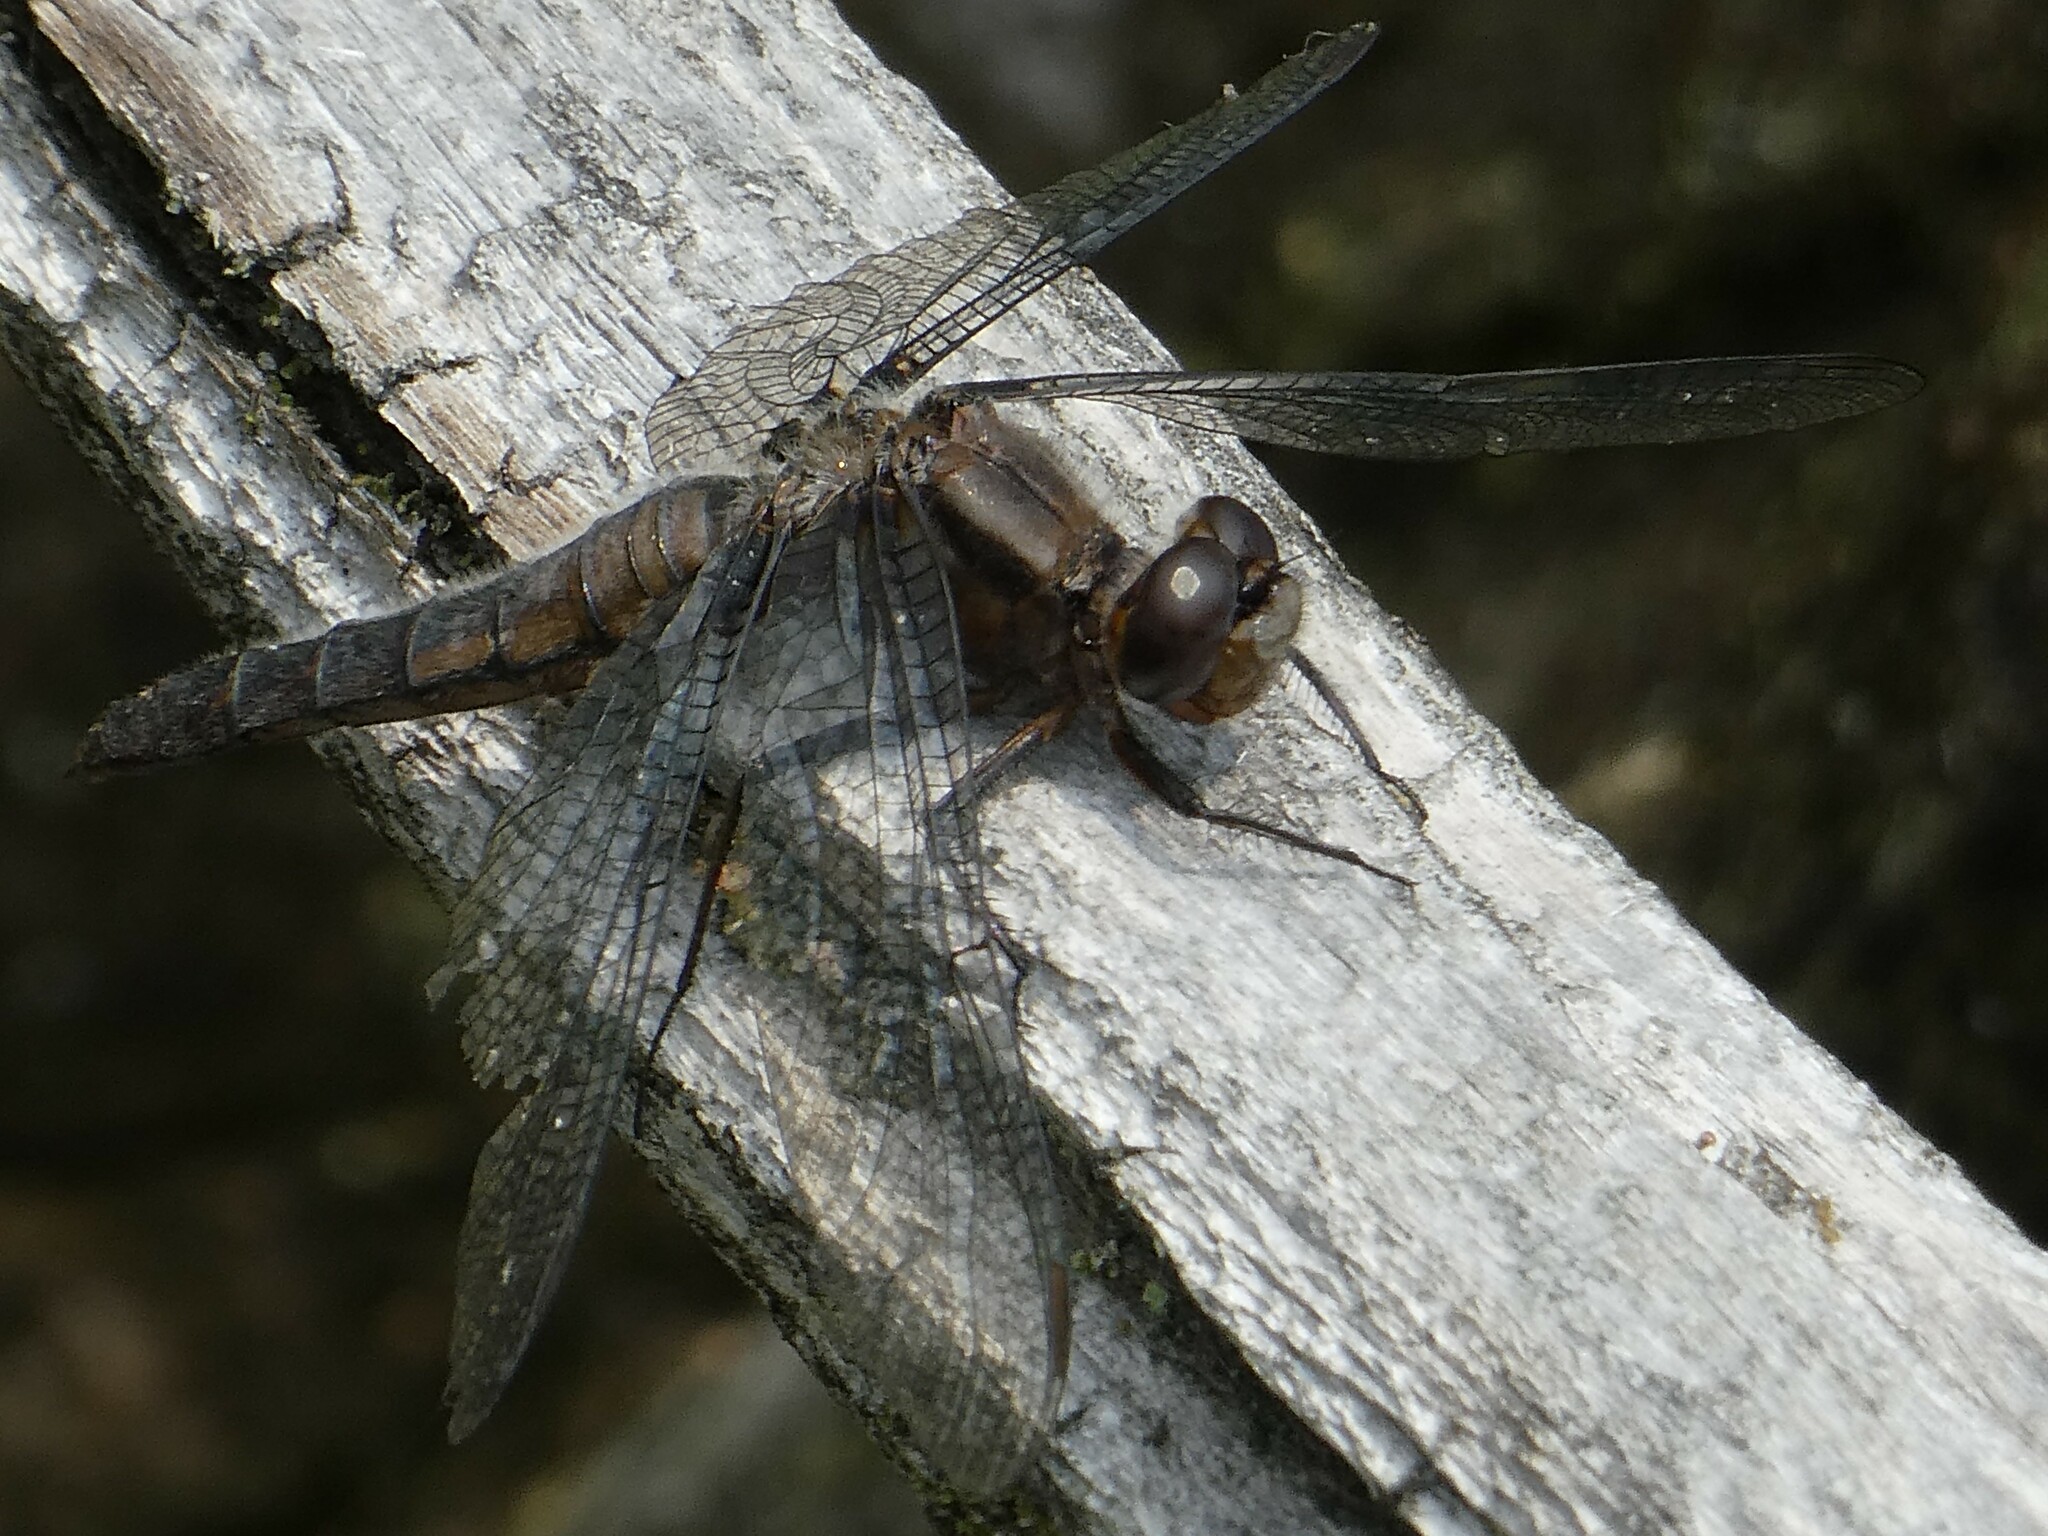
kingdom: Animalia
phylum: Arthropoda
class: Insecta
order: Odonata
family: Libellulidae
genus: Ladona
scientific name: Ladona julia
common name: Chalk-fronted corporal
